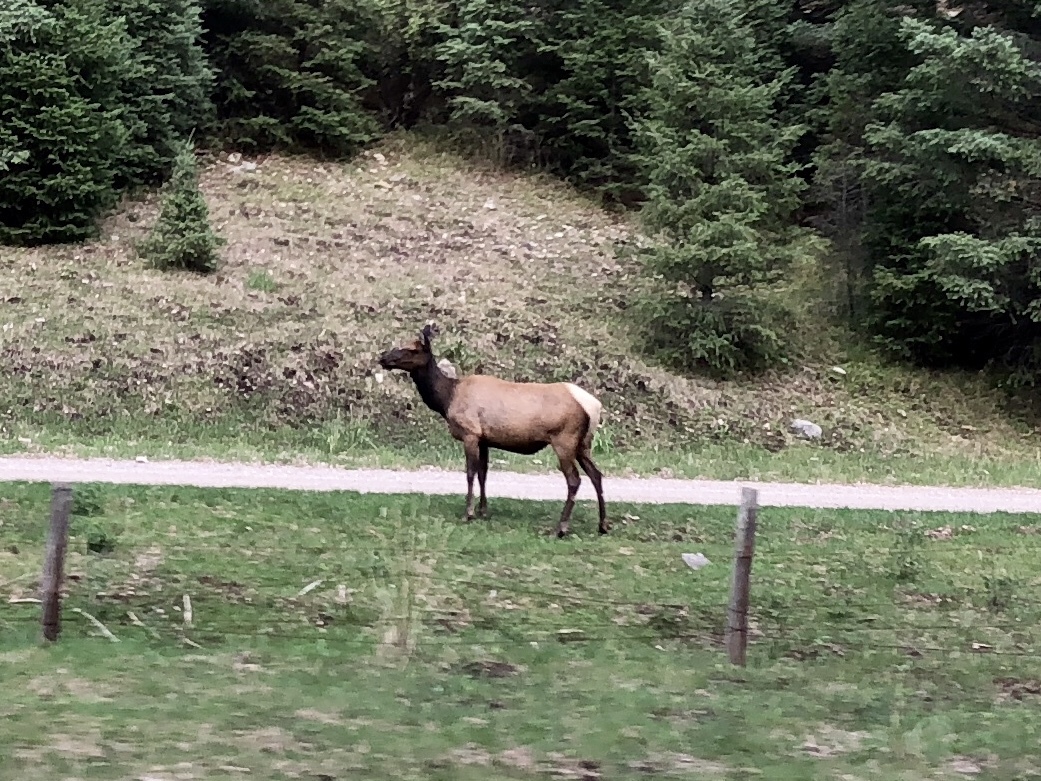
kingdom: Animalia
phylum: Chordata
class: Mammalia
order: Artiodactyla
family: Cervidae
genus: Cervus
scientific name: Cervus elaphus
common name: Red deer
